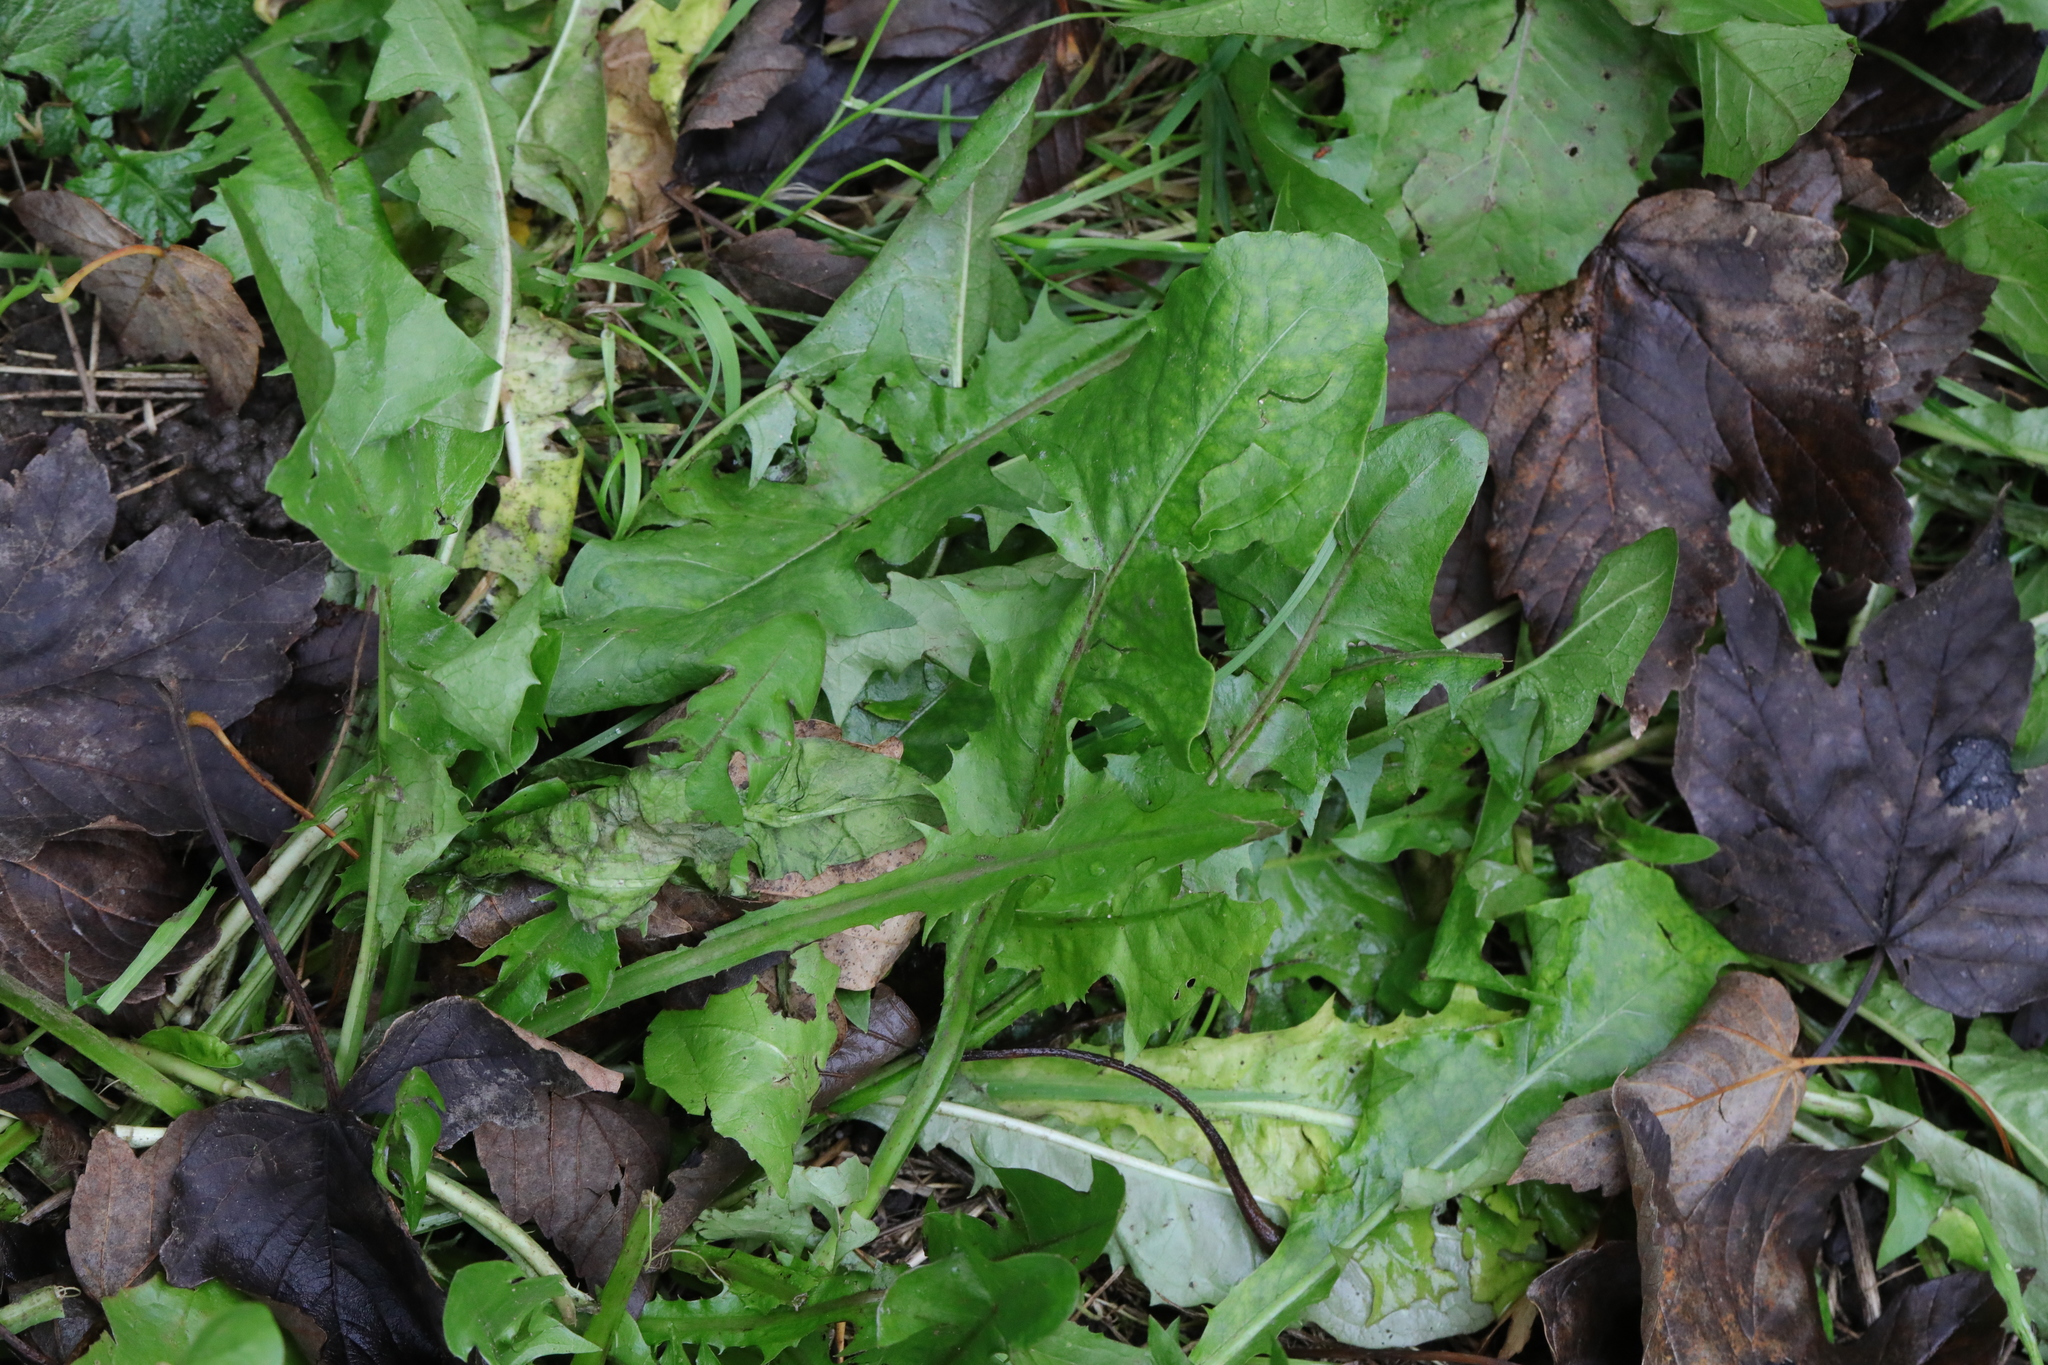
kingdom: Plantae
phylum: Tracheophyta
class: Magnoliopsida
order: Asterales
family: Asteraceae
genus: Taraxacum
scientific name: Taraxacum officinale
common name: Common dandelion
